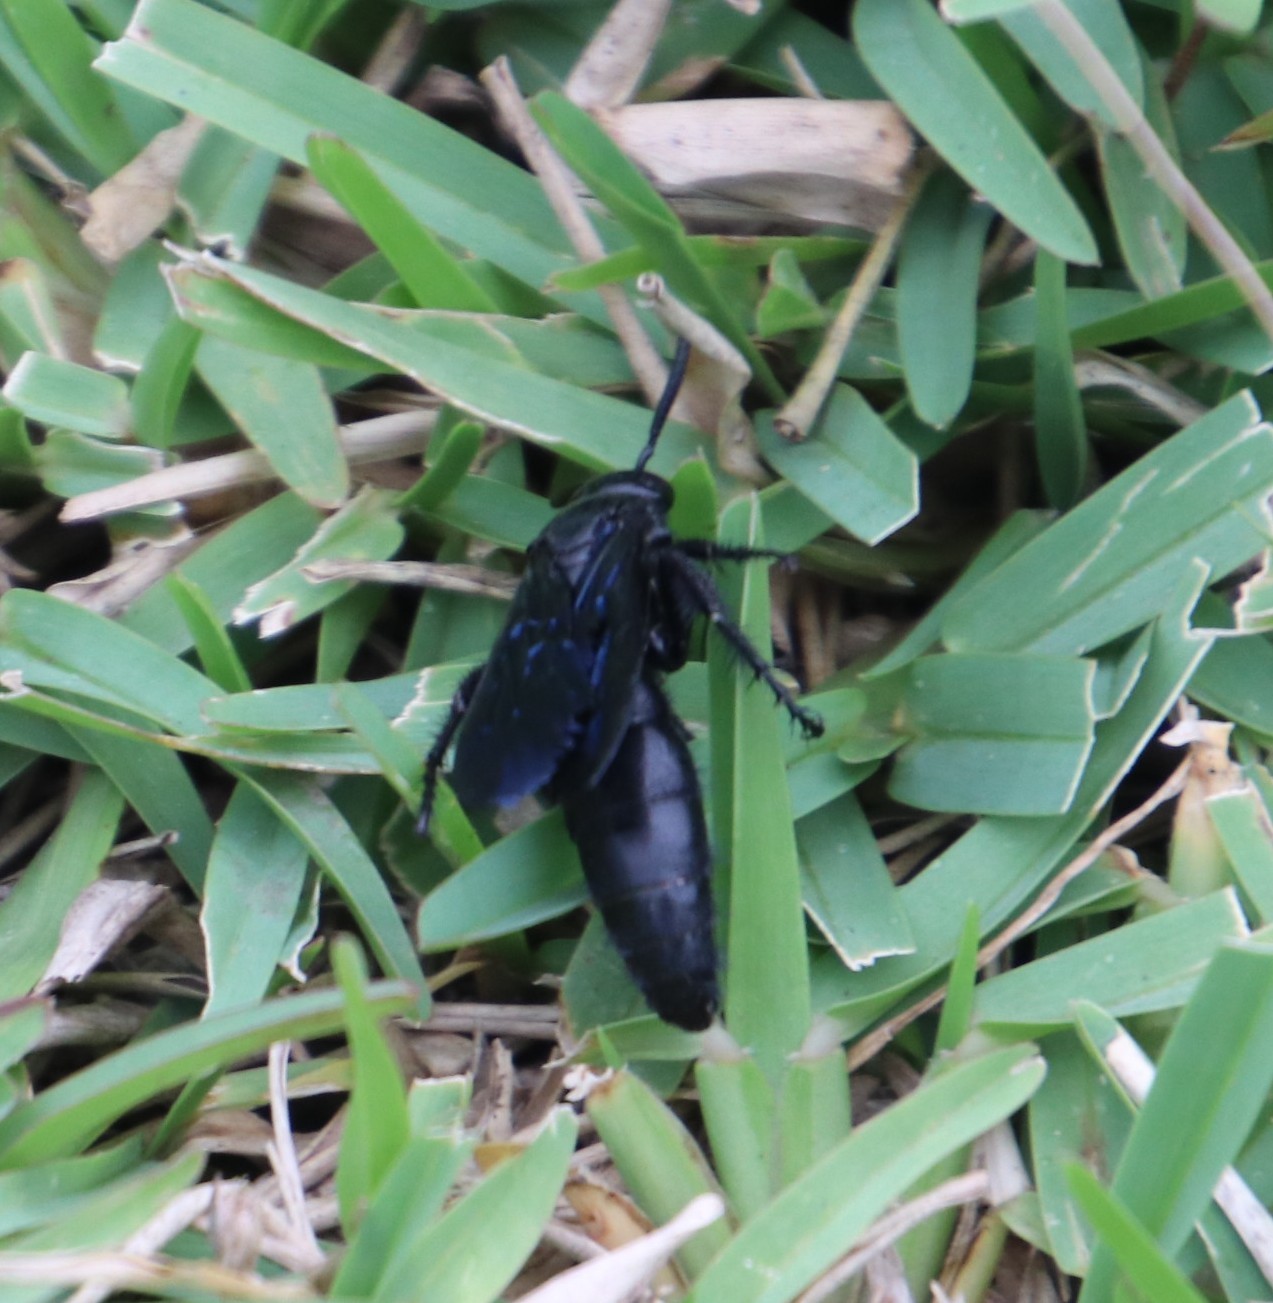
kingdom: Plantae
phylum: Tracheophyta
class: Liliopsida
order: Poales
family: Poaceae
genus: Stenotaphrum
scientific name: Stenotaphrum secundatum
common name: St. augustine grass
